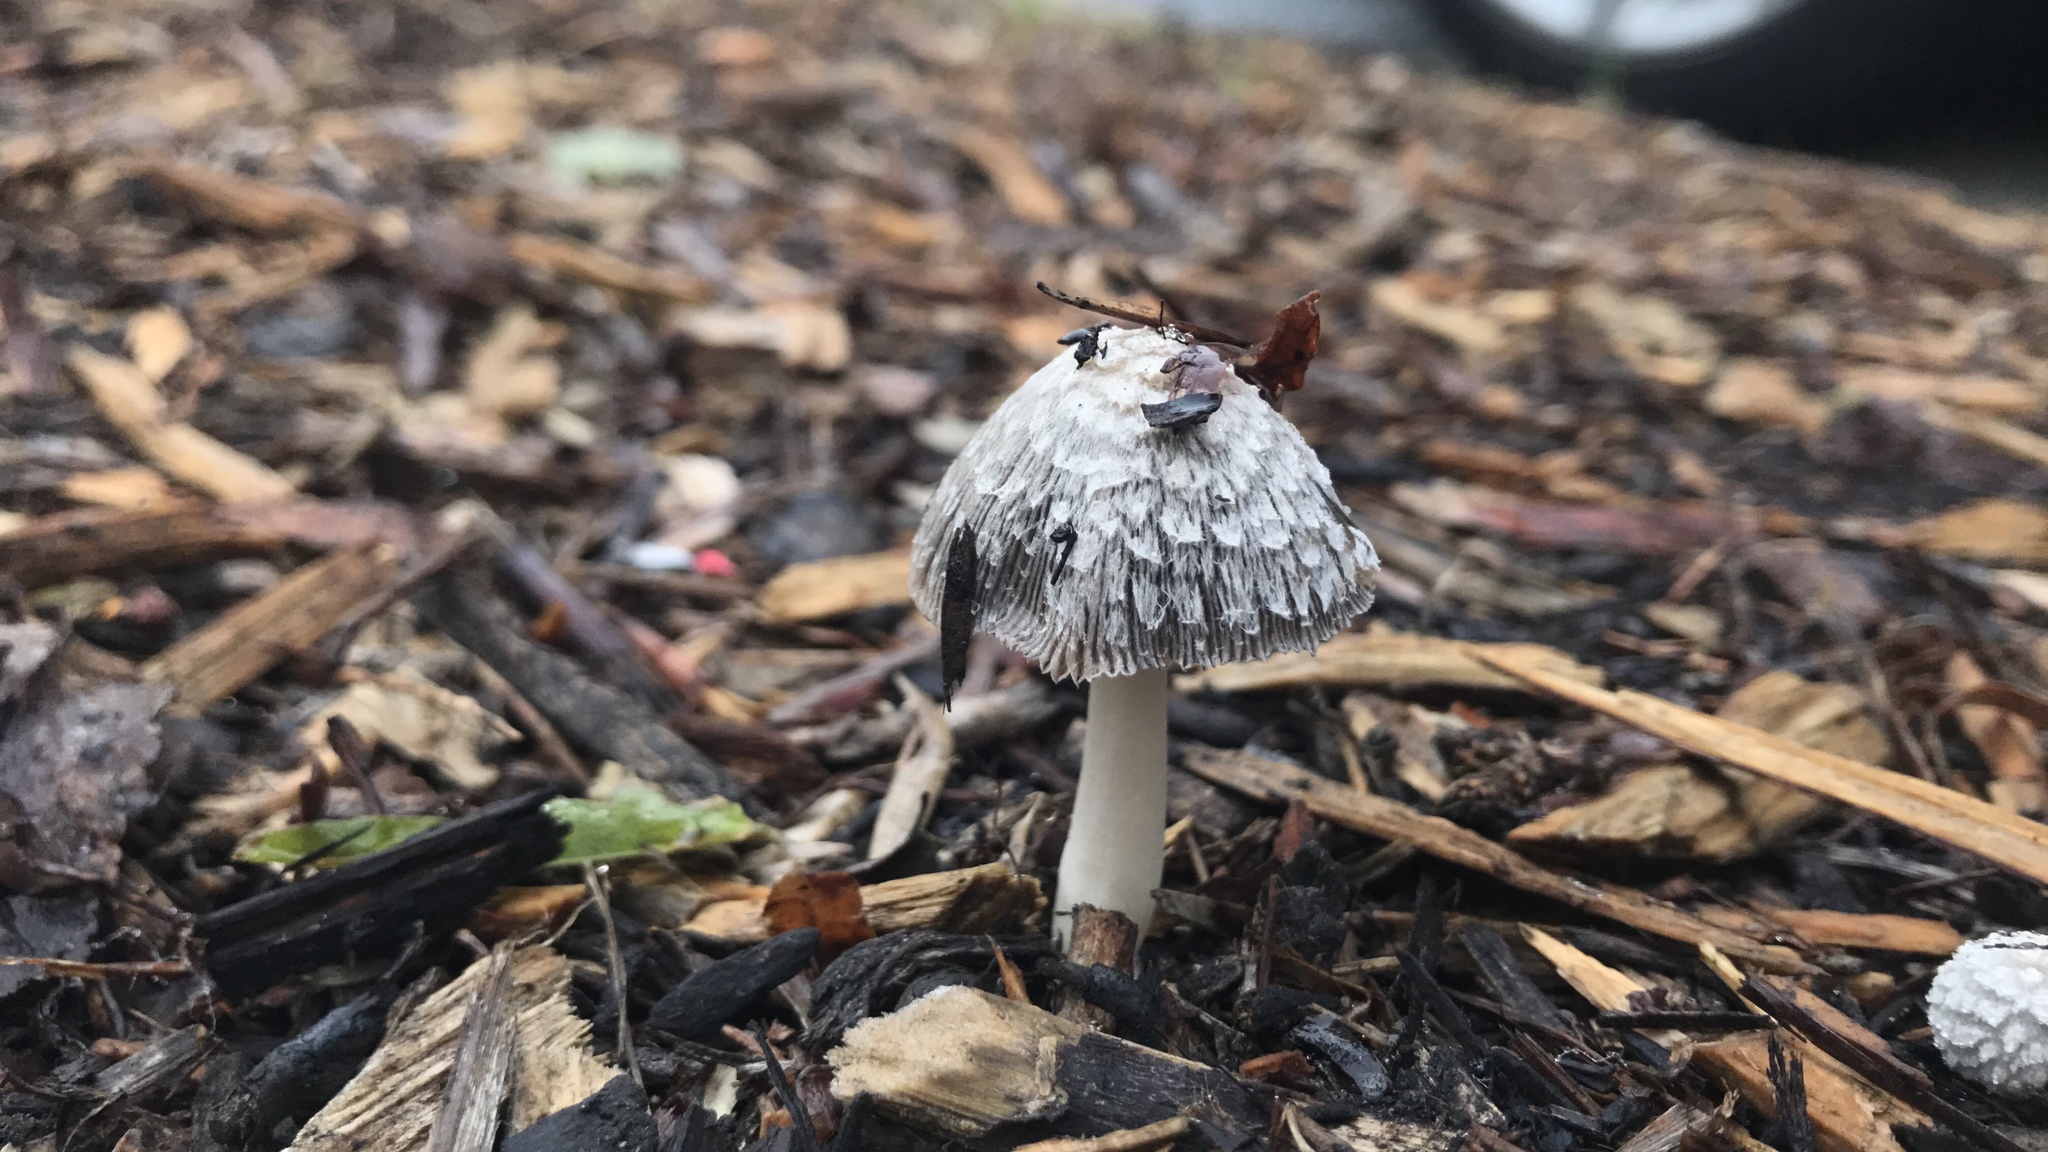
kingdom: Fungi
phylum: Basidiomycota
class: Agaricomycetes
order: Agaricales
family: Psathyrellaceae
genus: Coprinellus
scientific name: Coprinellus flocculosus
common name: Flocculose inkcap
